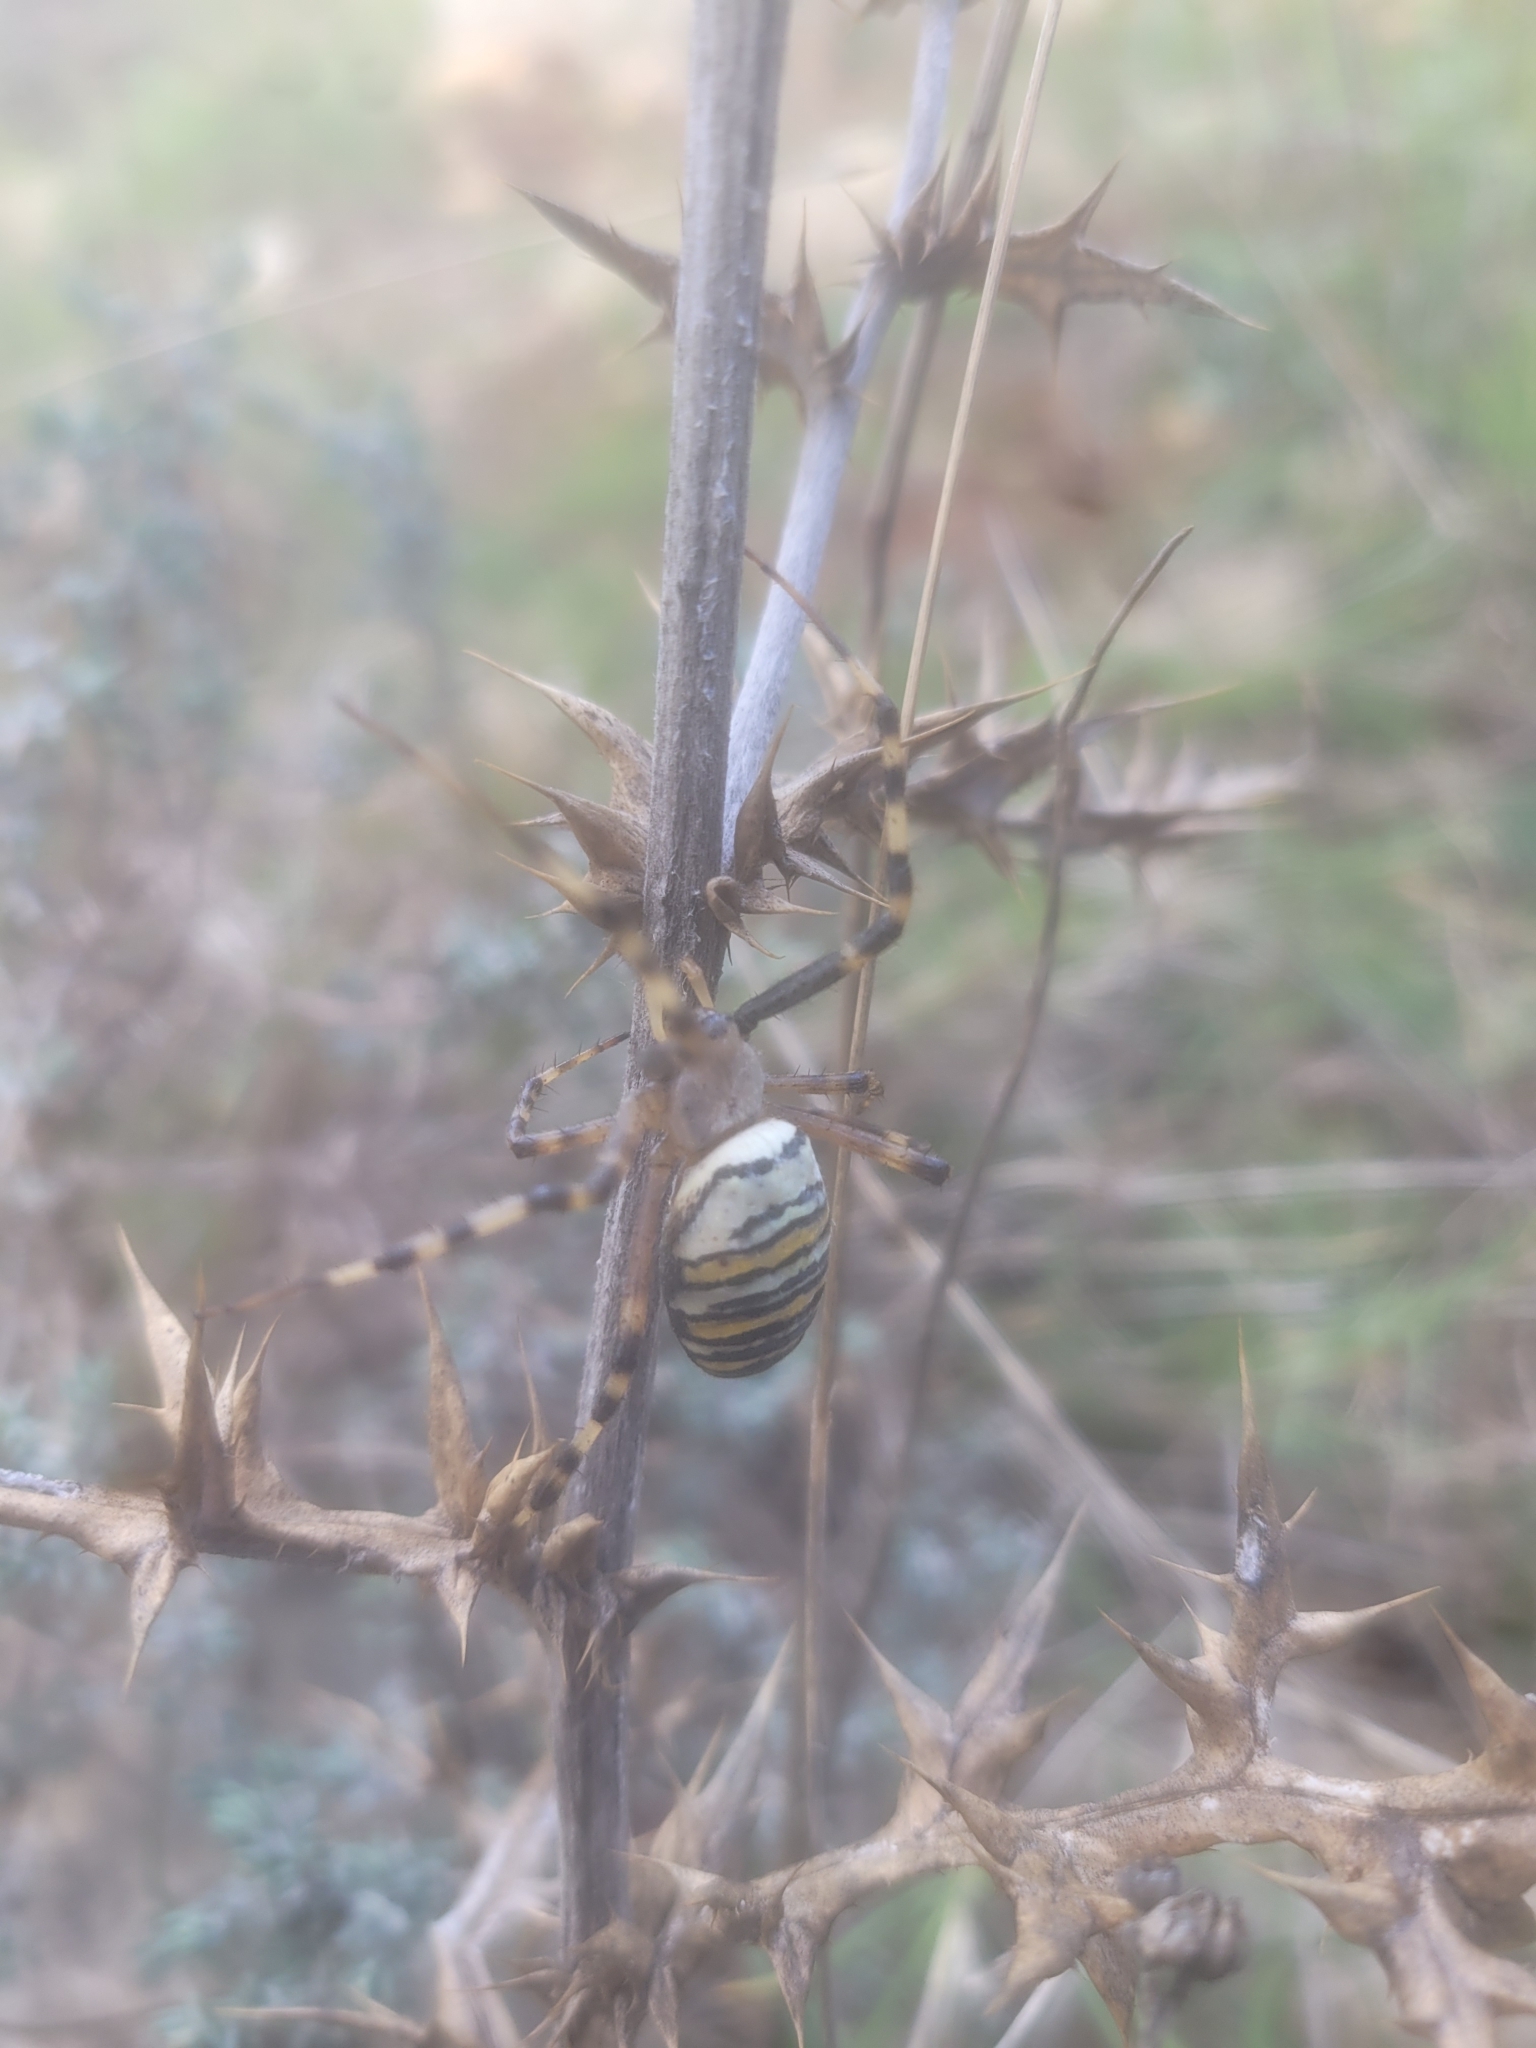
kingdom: Animalia
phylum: Arthropoda
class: Arachnida
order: Araneae
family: Araneidae
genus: Argiope
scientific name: Argiope bruennichi
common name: Wasp spider
